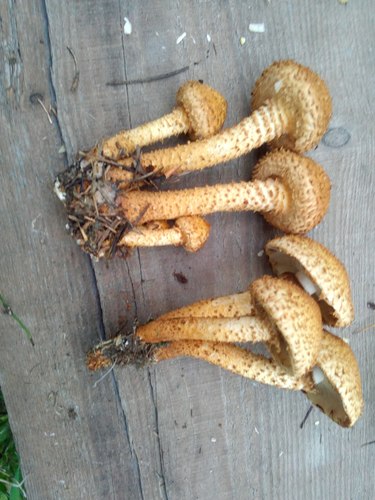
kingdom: Fungi
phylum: Basidiomycota
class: Agaricomycetes
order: Agaricales
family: Strophariaceae
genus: Pholiota
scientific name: Pholiota squarrosa
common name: Shaggy pholiota
